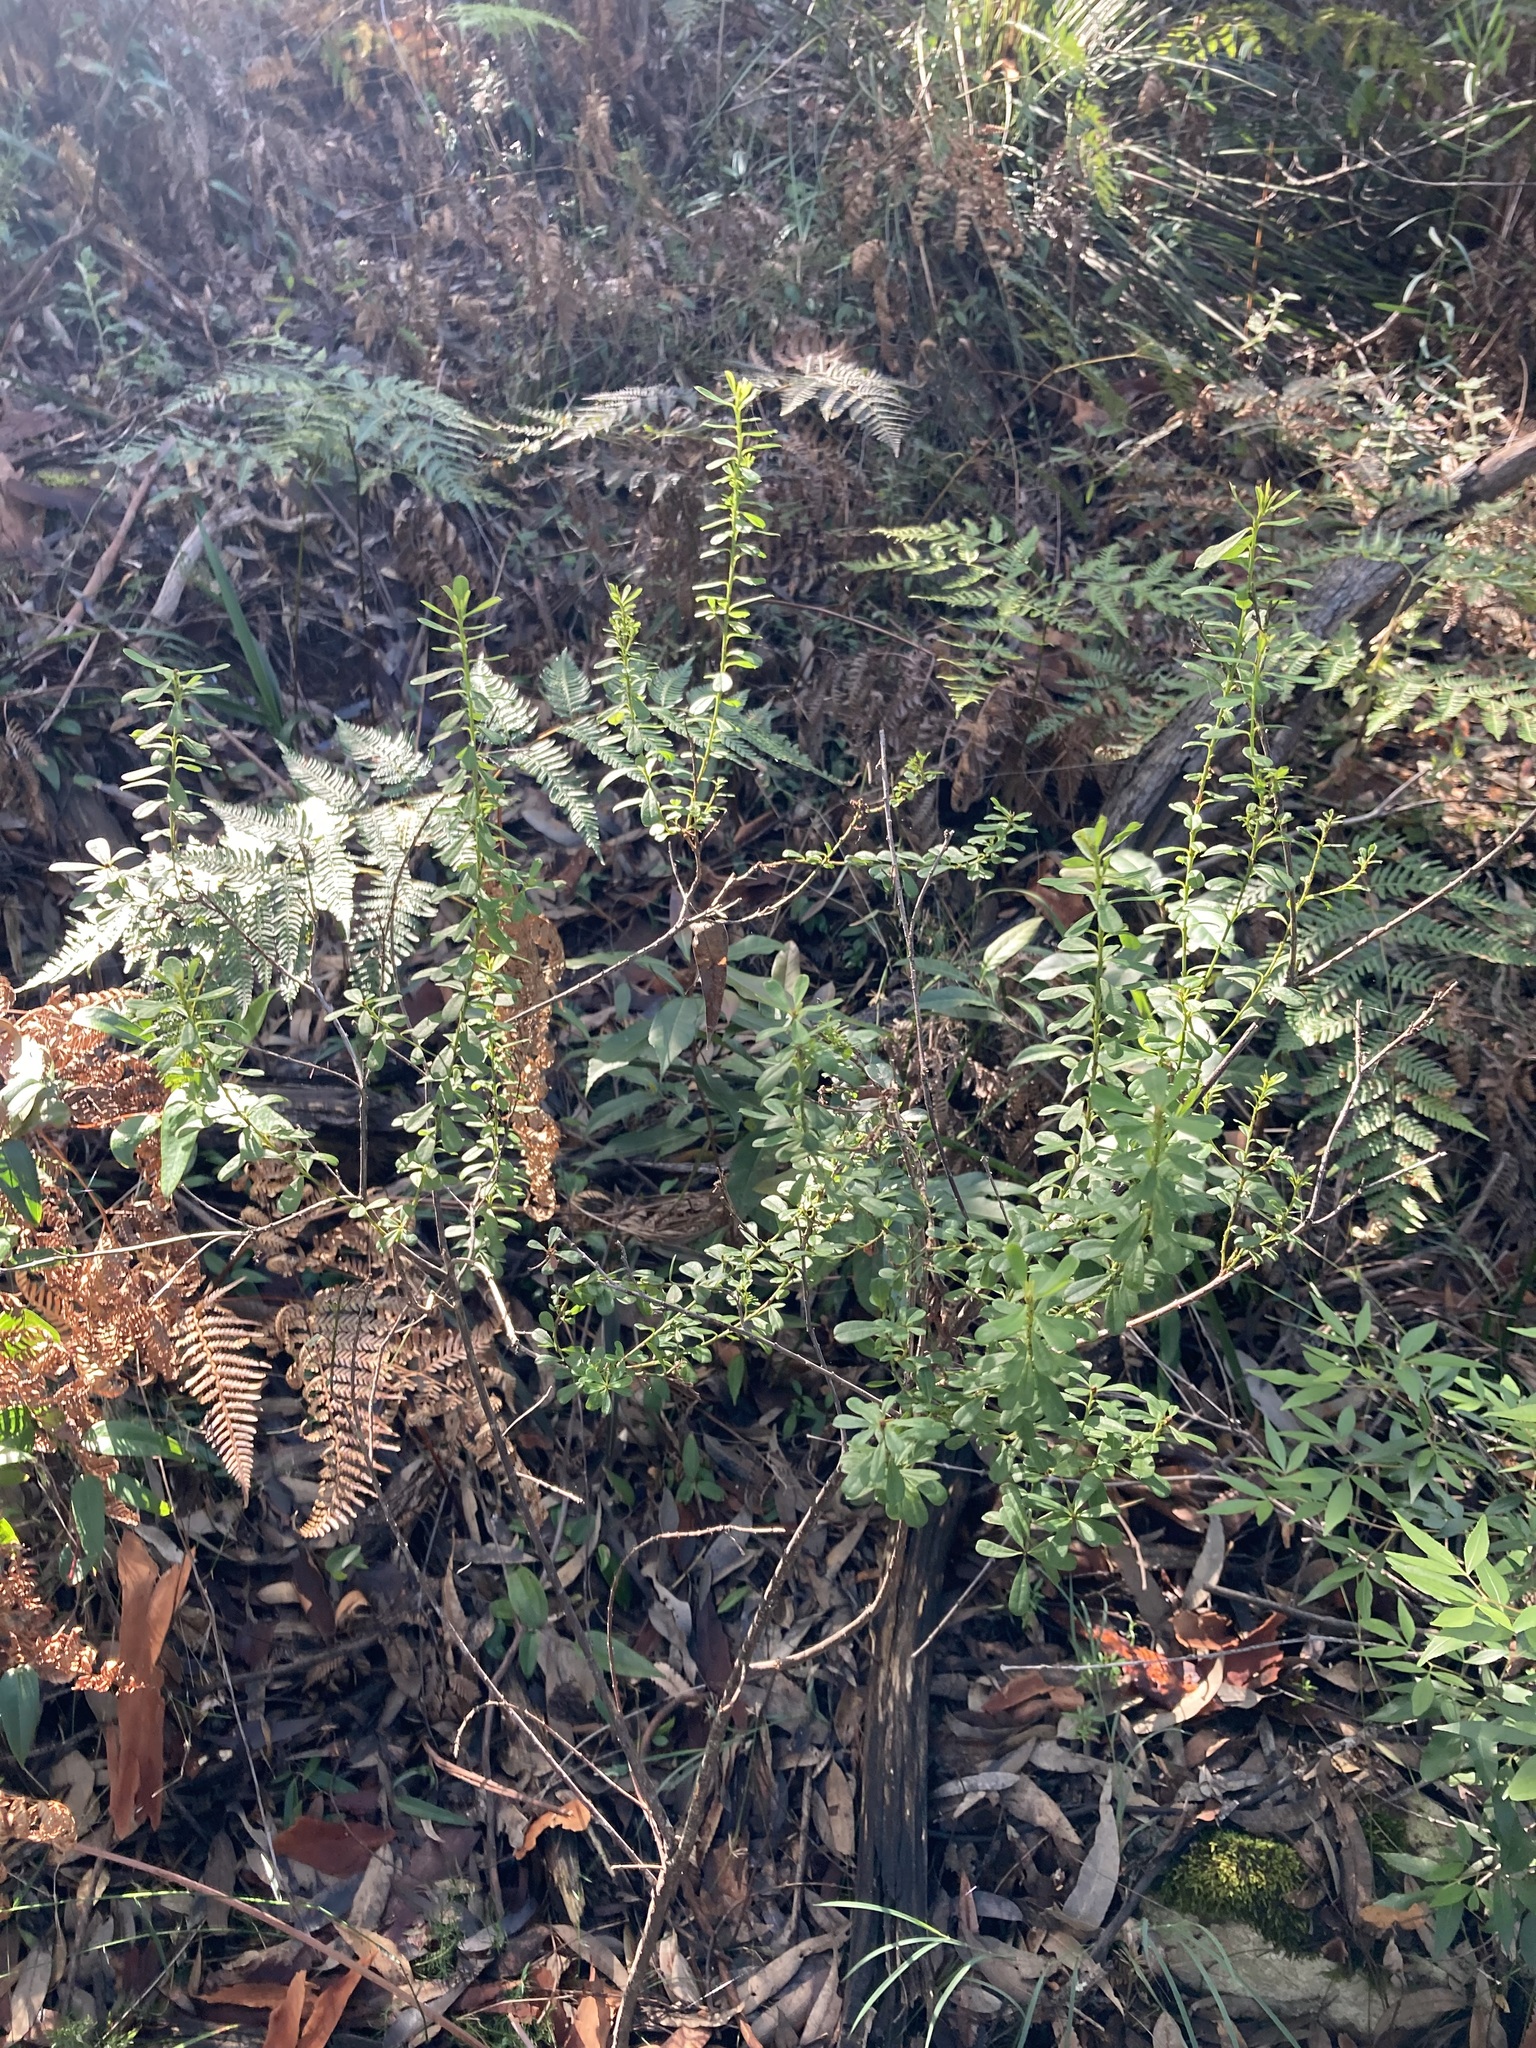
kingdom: Plantae
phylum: Tracheophyta
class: Magnoliopsida
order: Fabales
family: Fabaceae
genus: Pultenaea
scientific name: Pultenaea daphnoides
